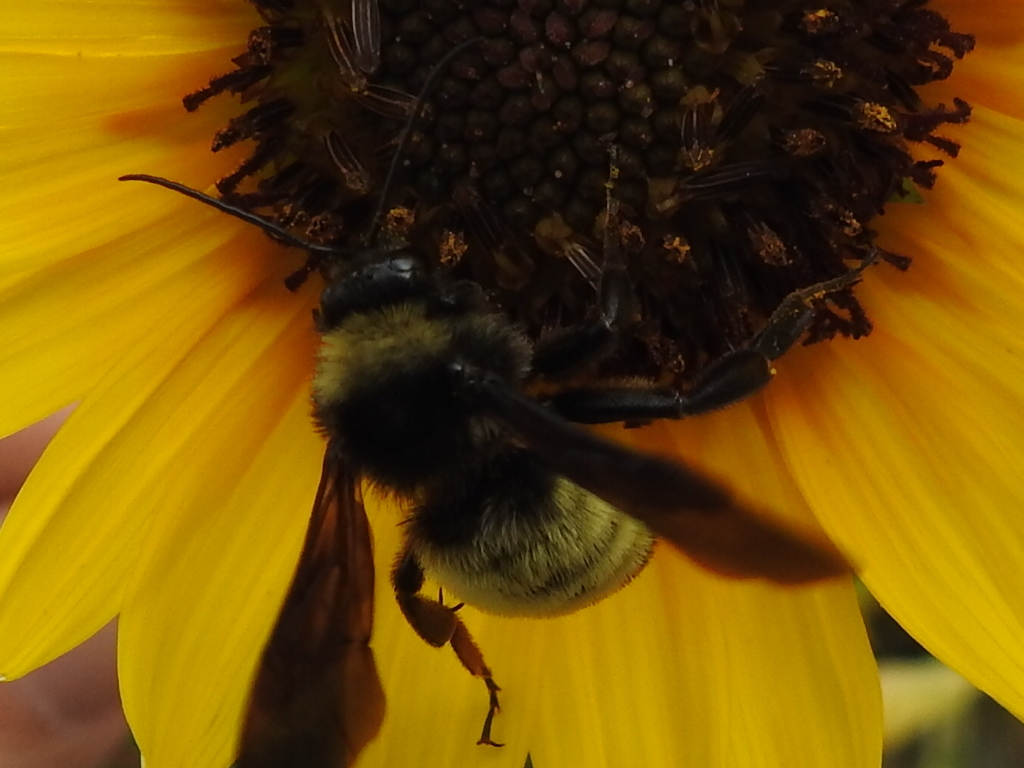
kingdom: Animalia
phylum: Arthropoda
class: Insecta
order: Hymenoptera
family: Apidae
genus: Bombus
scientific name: Bombus pensylvanicus
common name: Bumble bee
